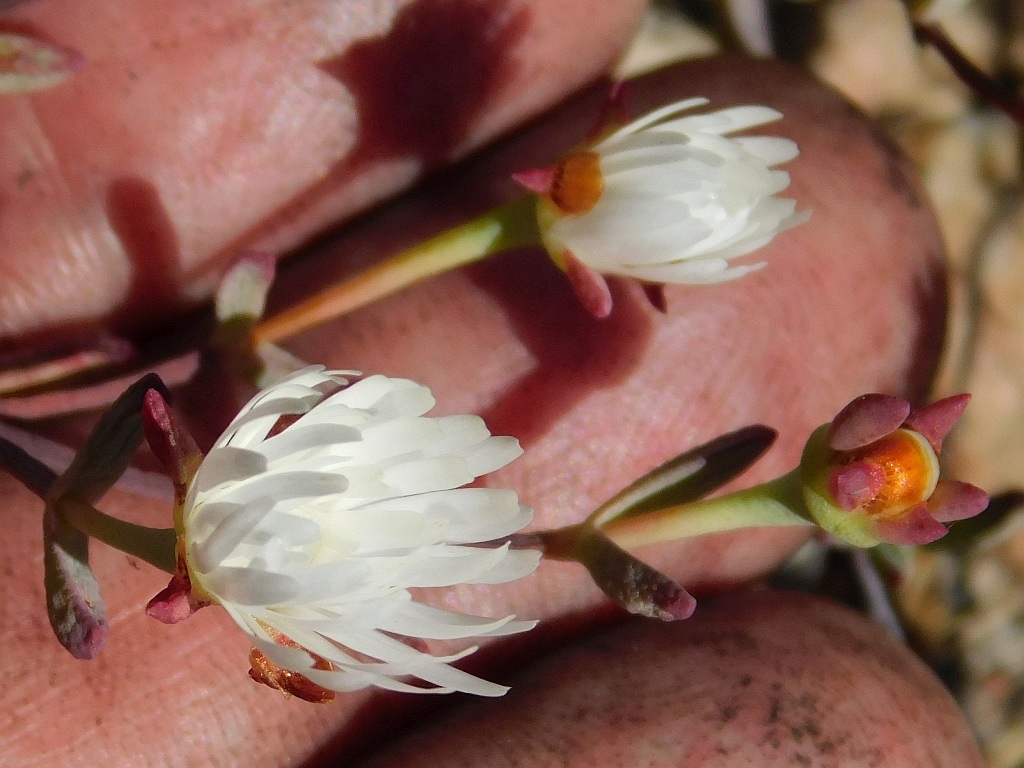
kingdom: Plantae
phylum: Tracheophyta
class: Magnoliopsida
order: Caryophyllales
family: Aizoaceae
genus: Lampranthus
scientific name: Lampranthus falcatus
